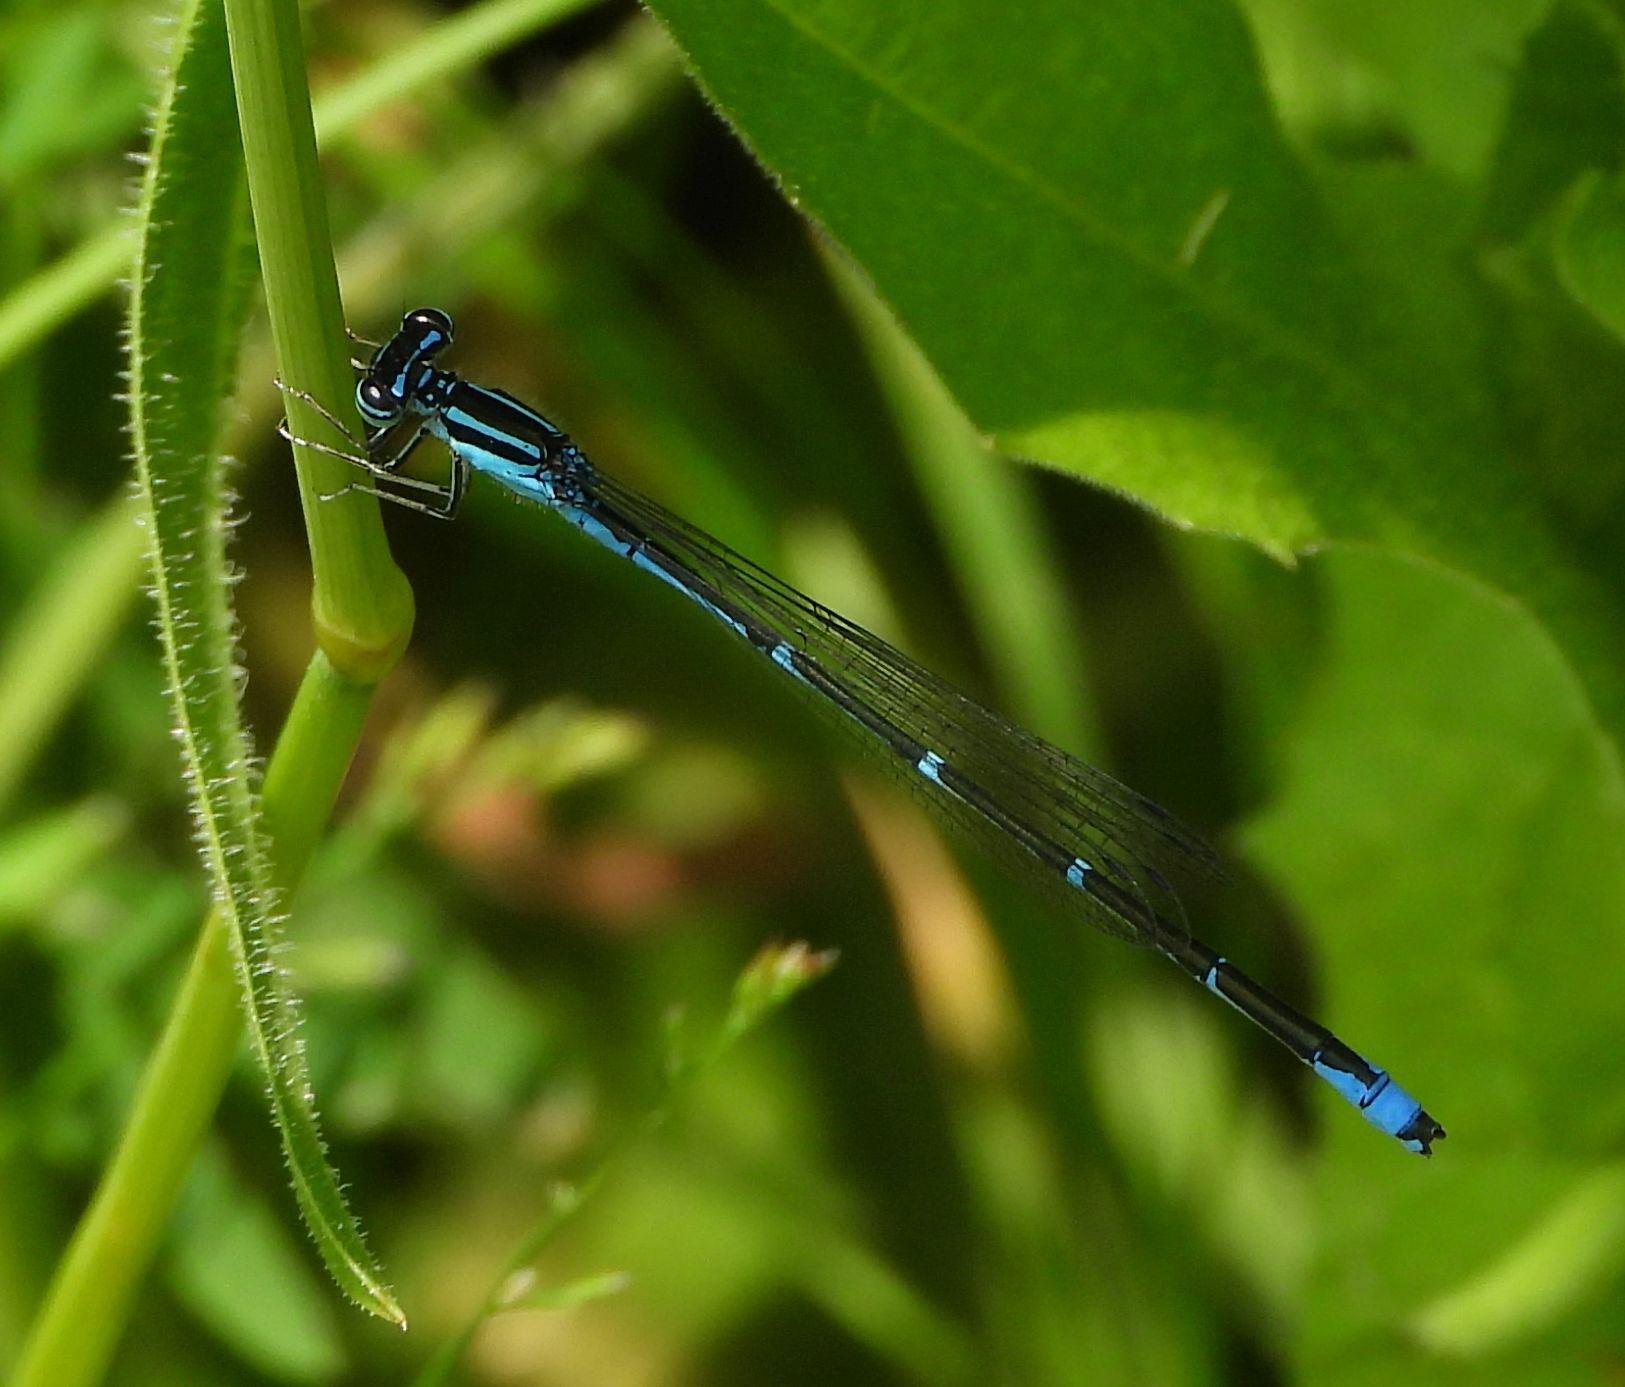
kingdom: Animalia
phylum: Arthropoda
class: Insecta
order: Odonata
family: Coenagrionidae
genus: Enallagma
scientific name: Enallagma exsulans
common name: Stream bluet
